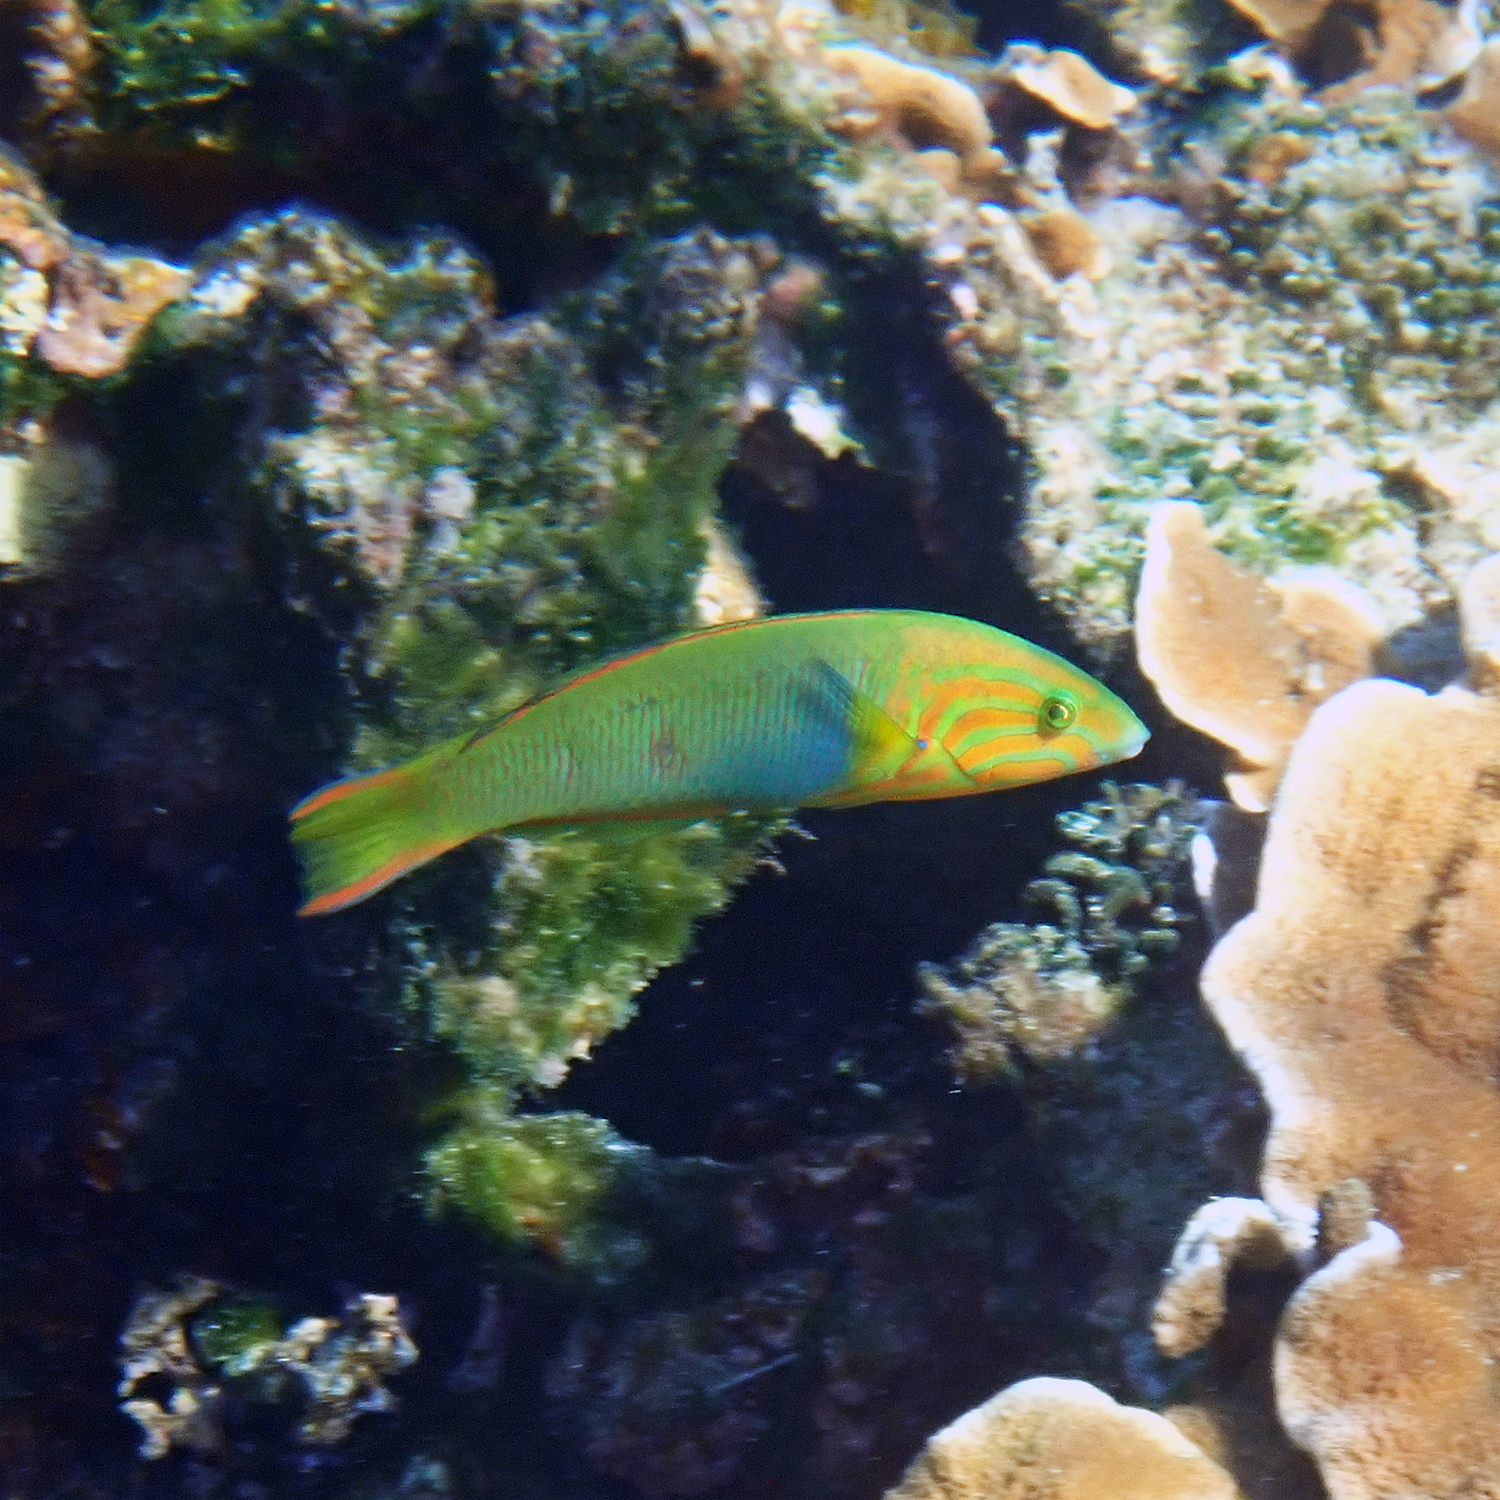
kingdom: Animalia
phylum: Chordata
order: Perciformes
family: Labridae
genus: Thalassoma
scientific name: Thalassoma lutescens
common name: Green moon wrasse
